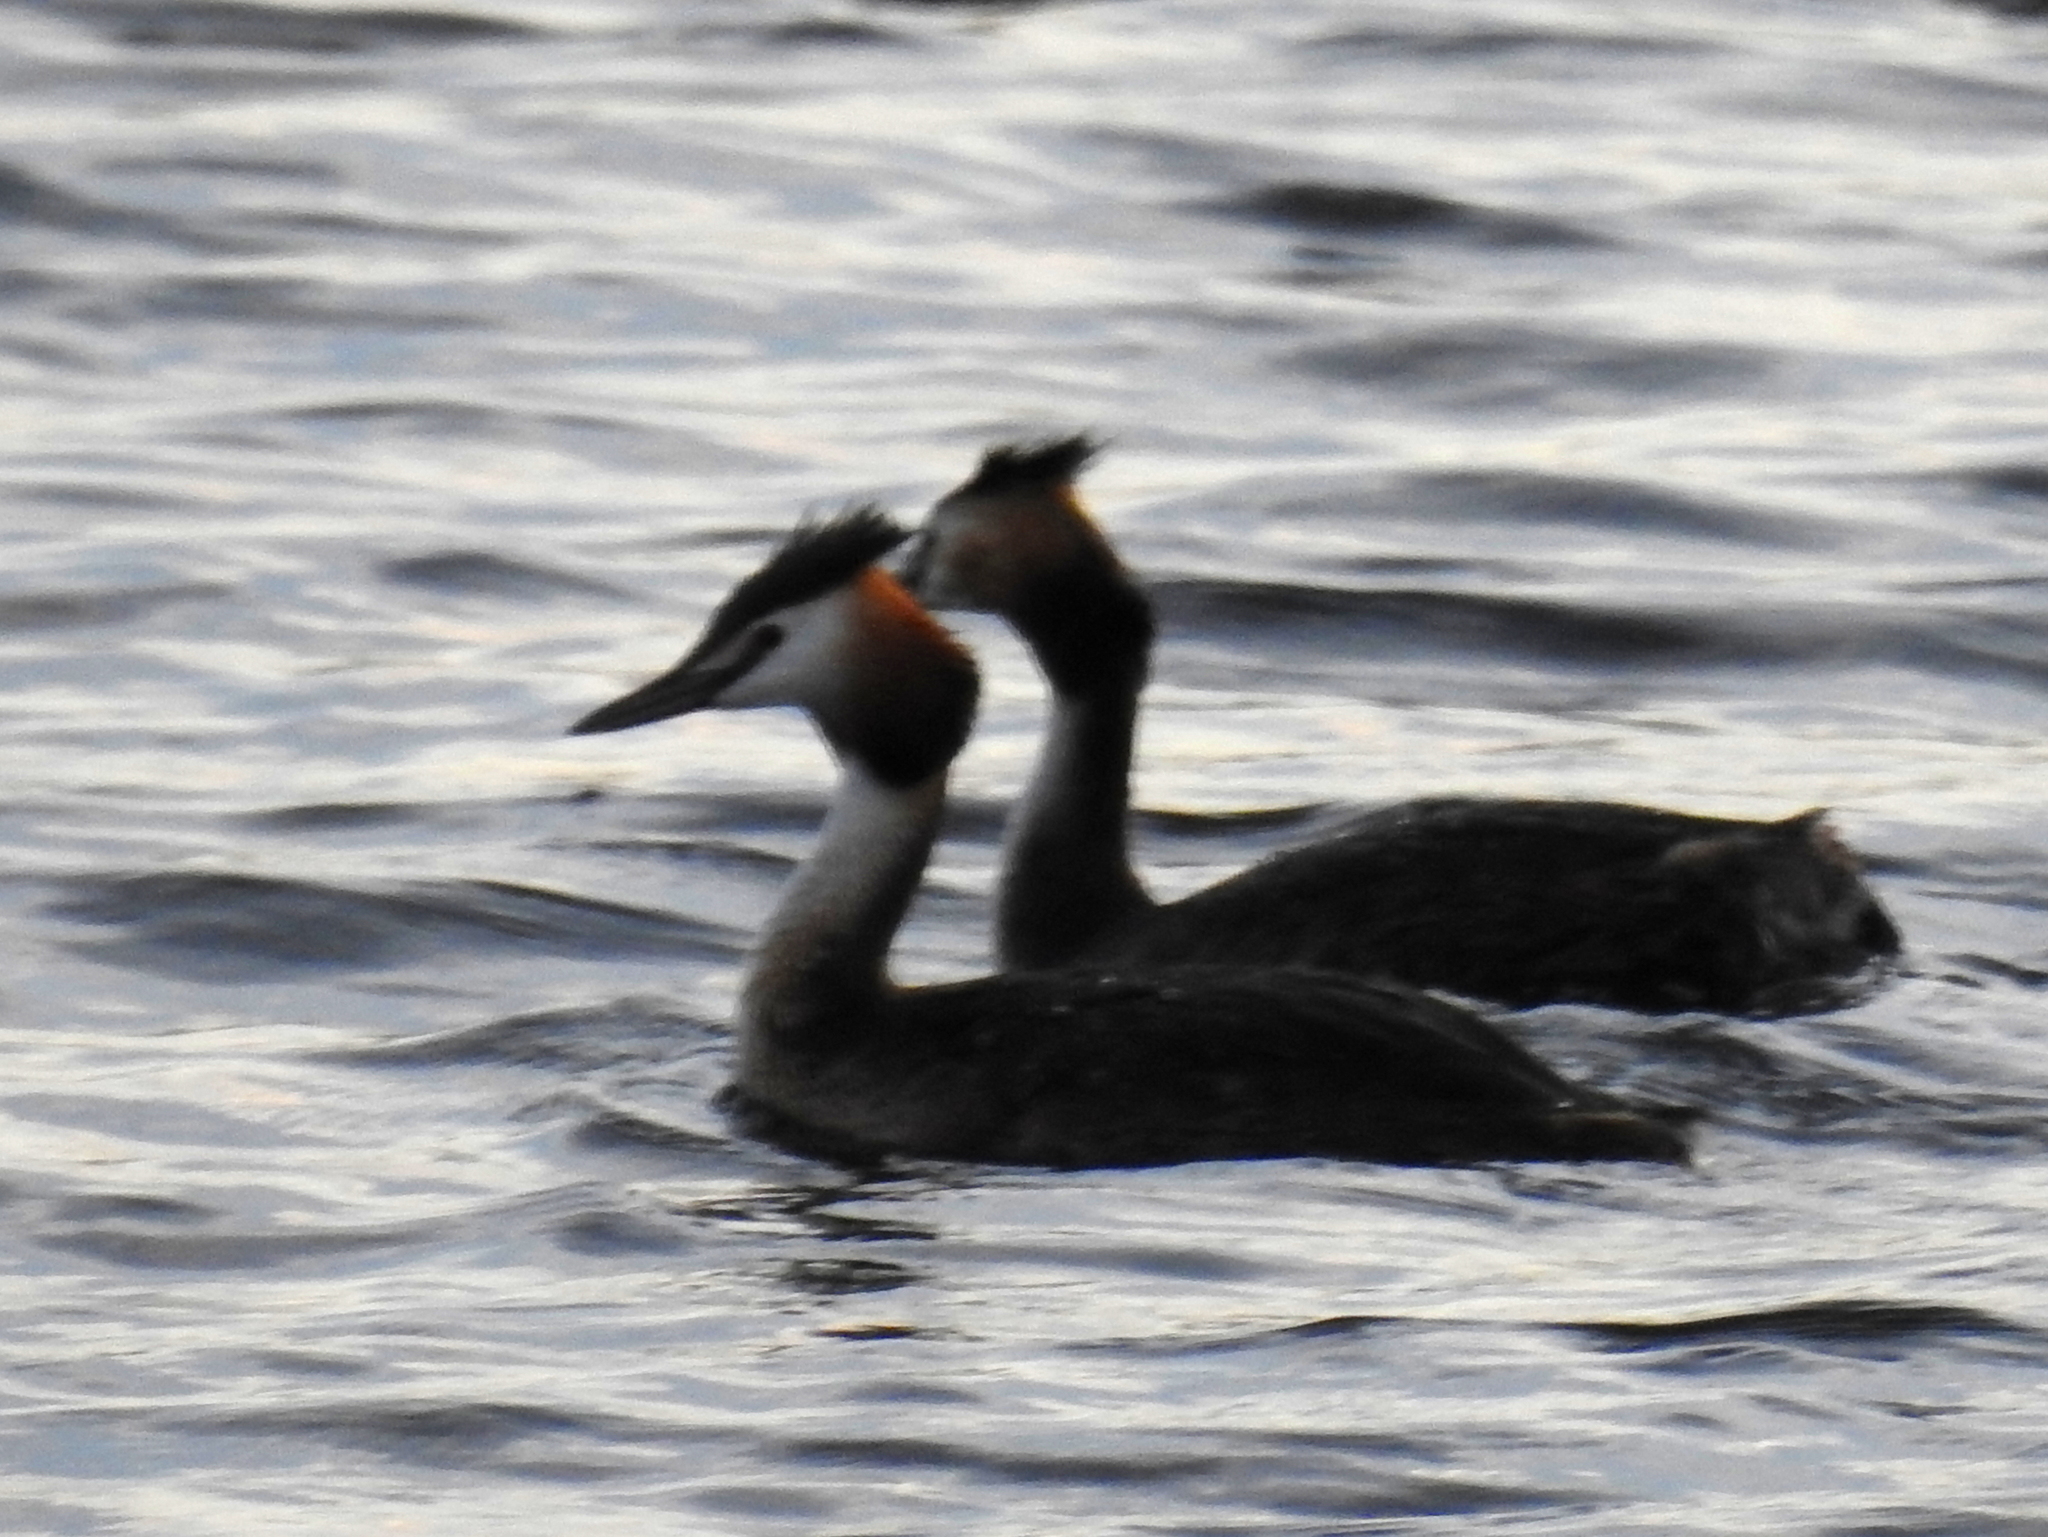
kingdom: Animalia
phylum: Chordata
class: Aves
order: Podicipediformes
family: Podicipedidae
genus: Podiceps
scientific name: Podiceps cristatus
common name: Great crested grebe
